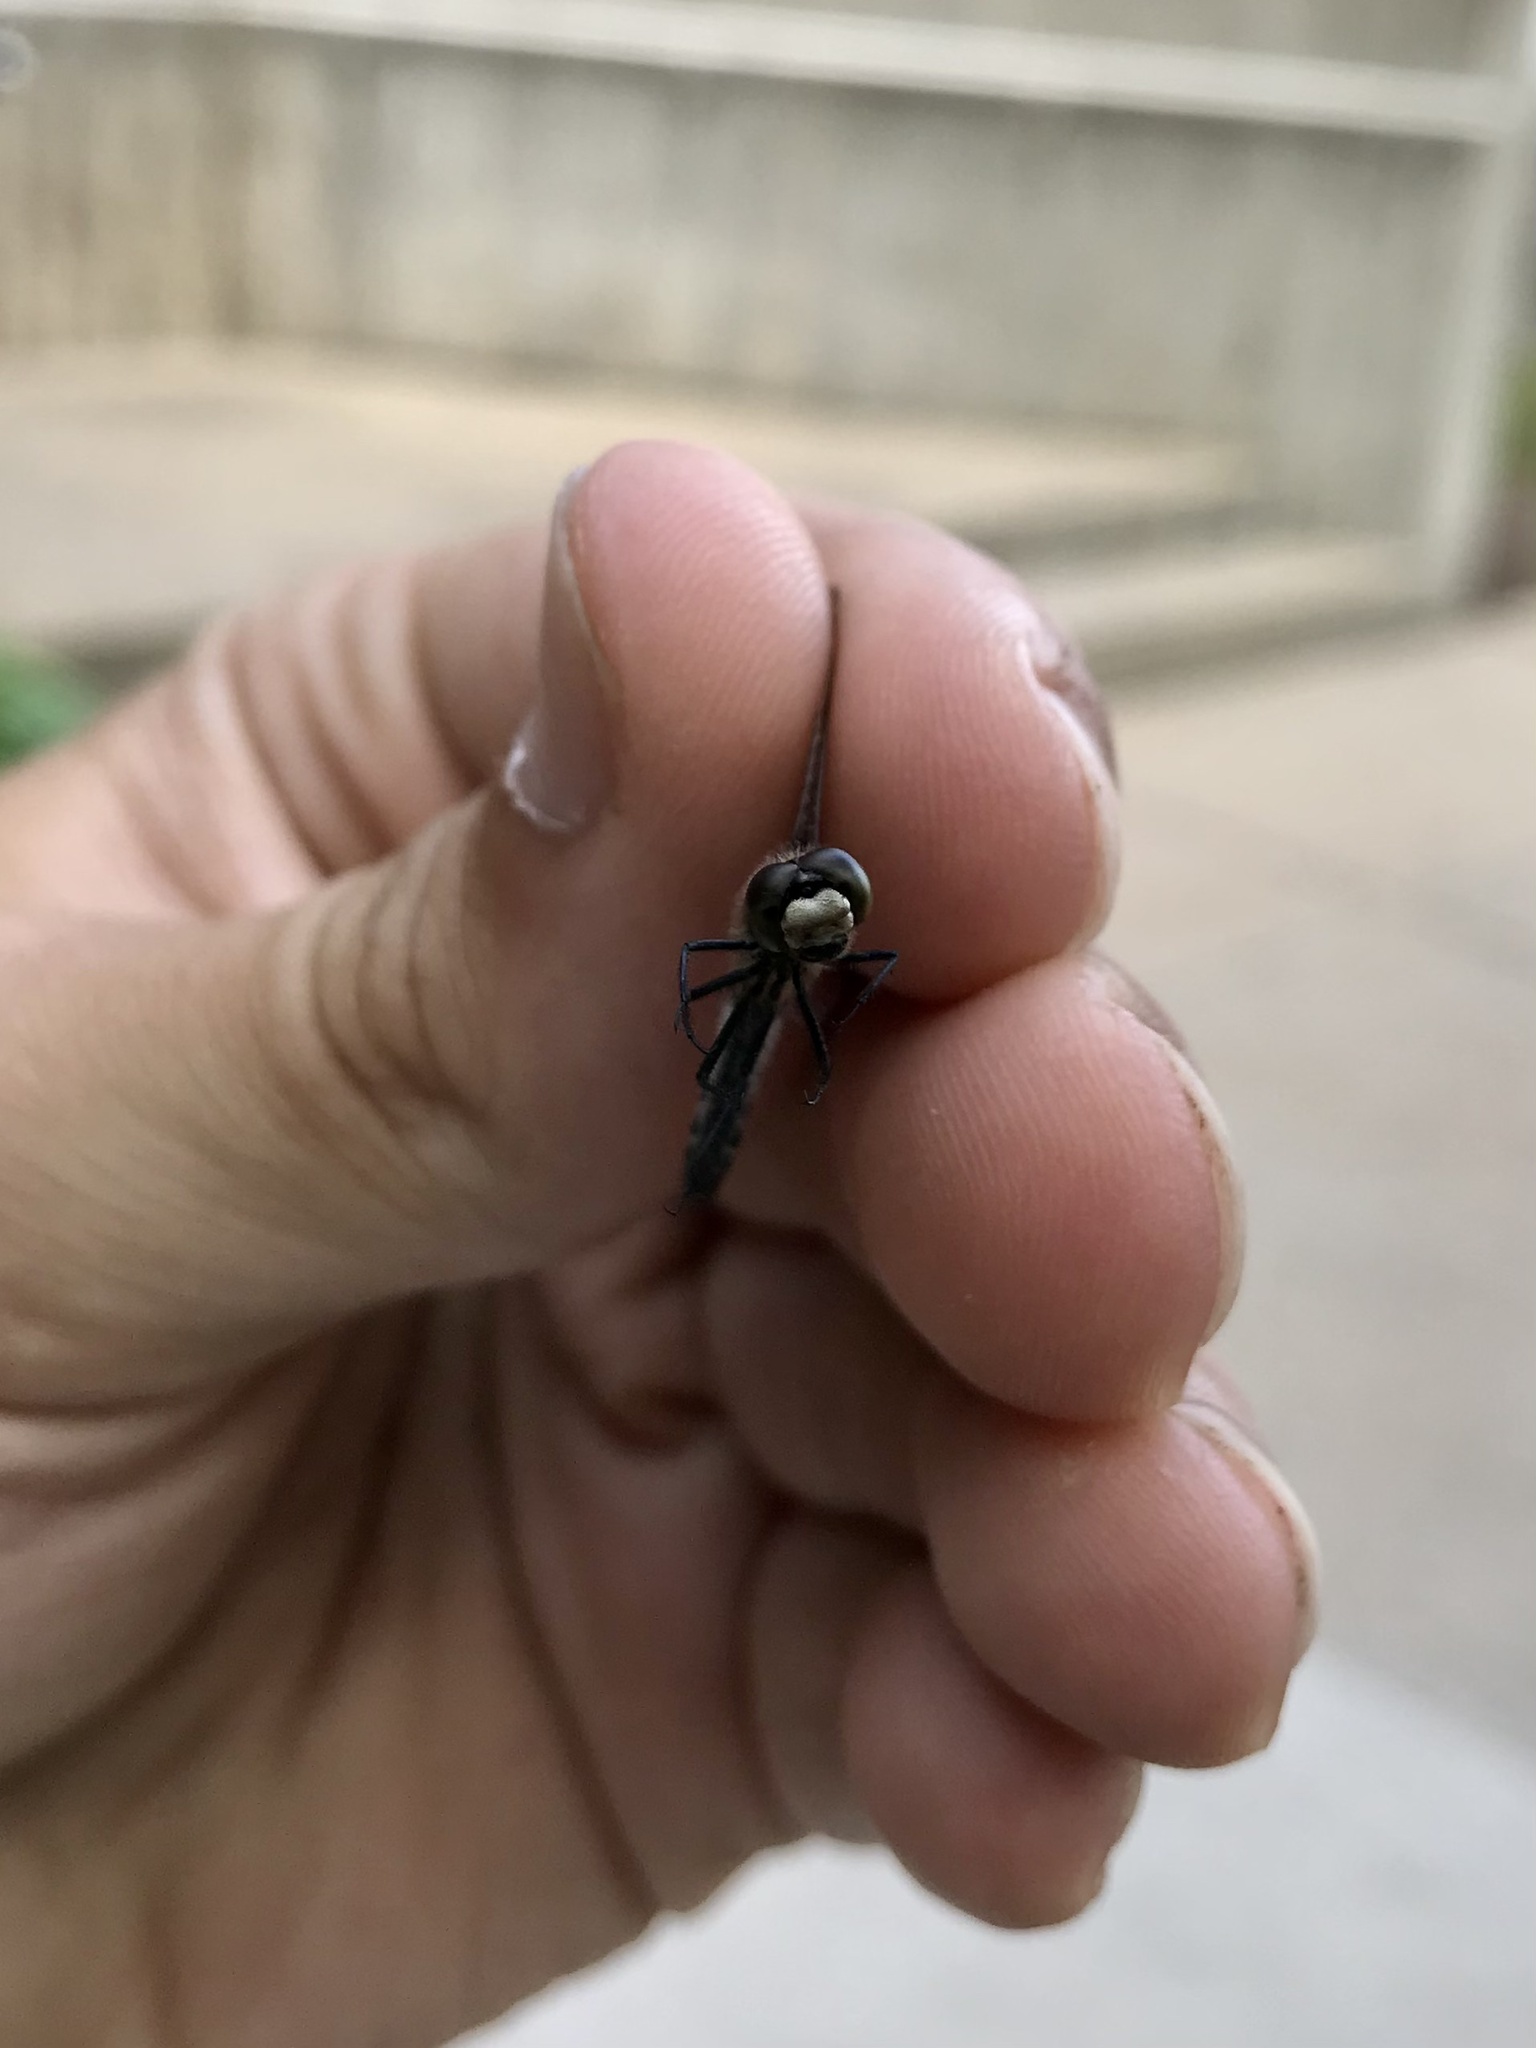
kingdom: Animalia
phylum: Arthropoda
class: Insecta
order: Odonata
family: Libellulidae
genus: Leucorrhinia
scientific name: Leucorrhinia hudsonica
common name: Hudsonian whiteface
